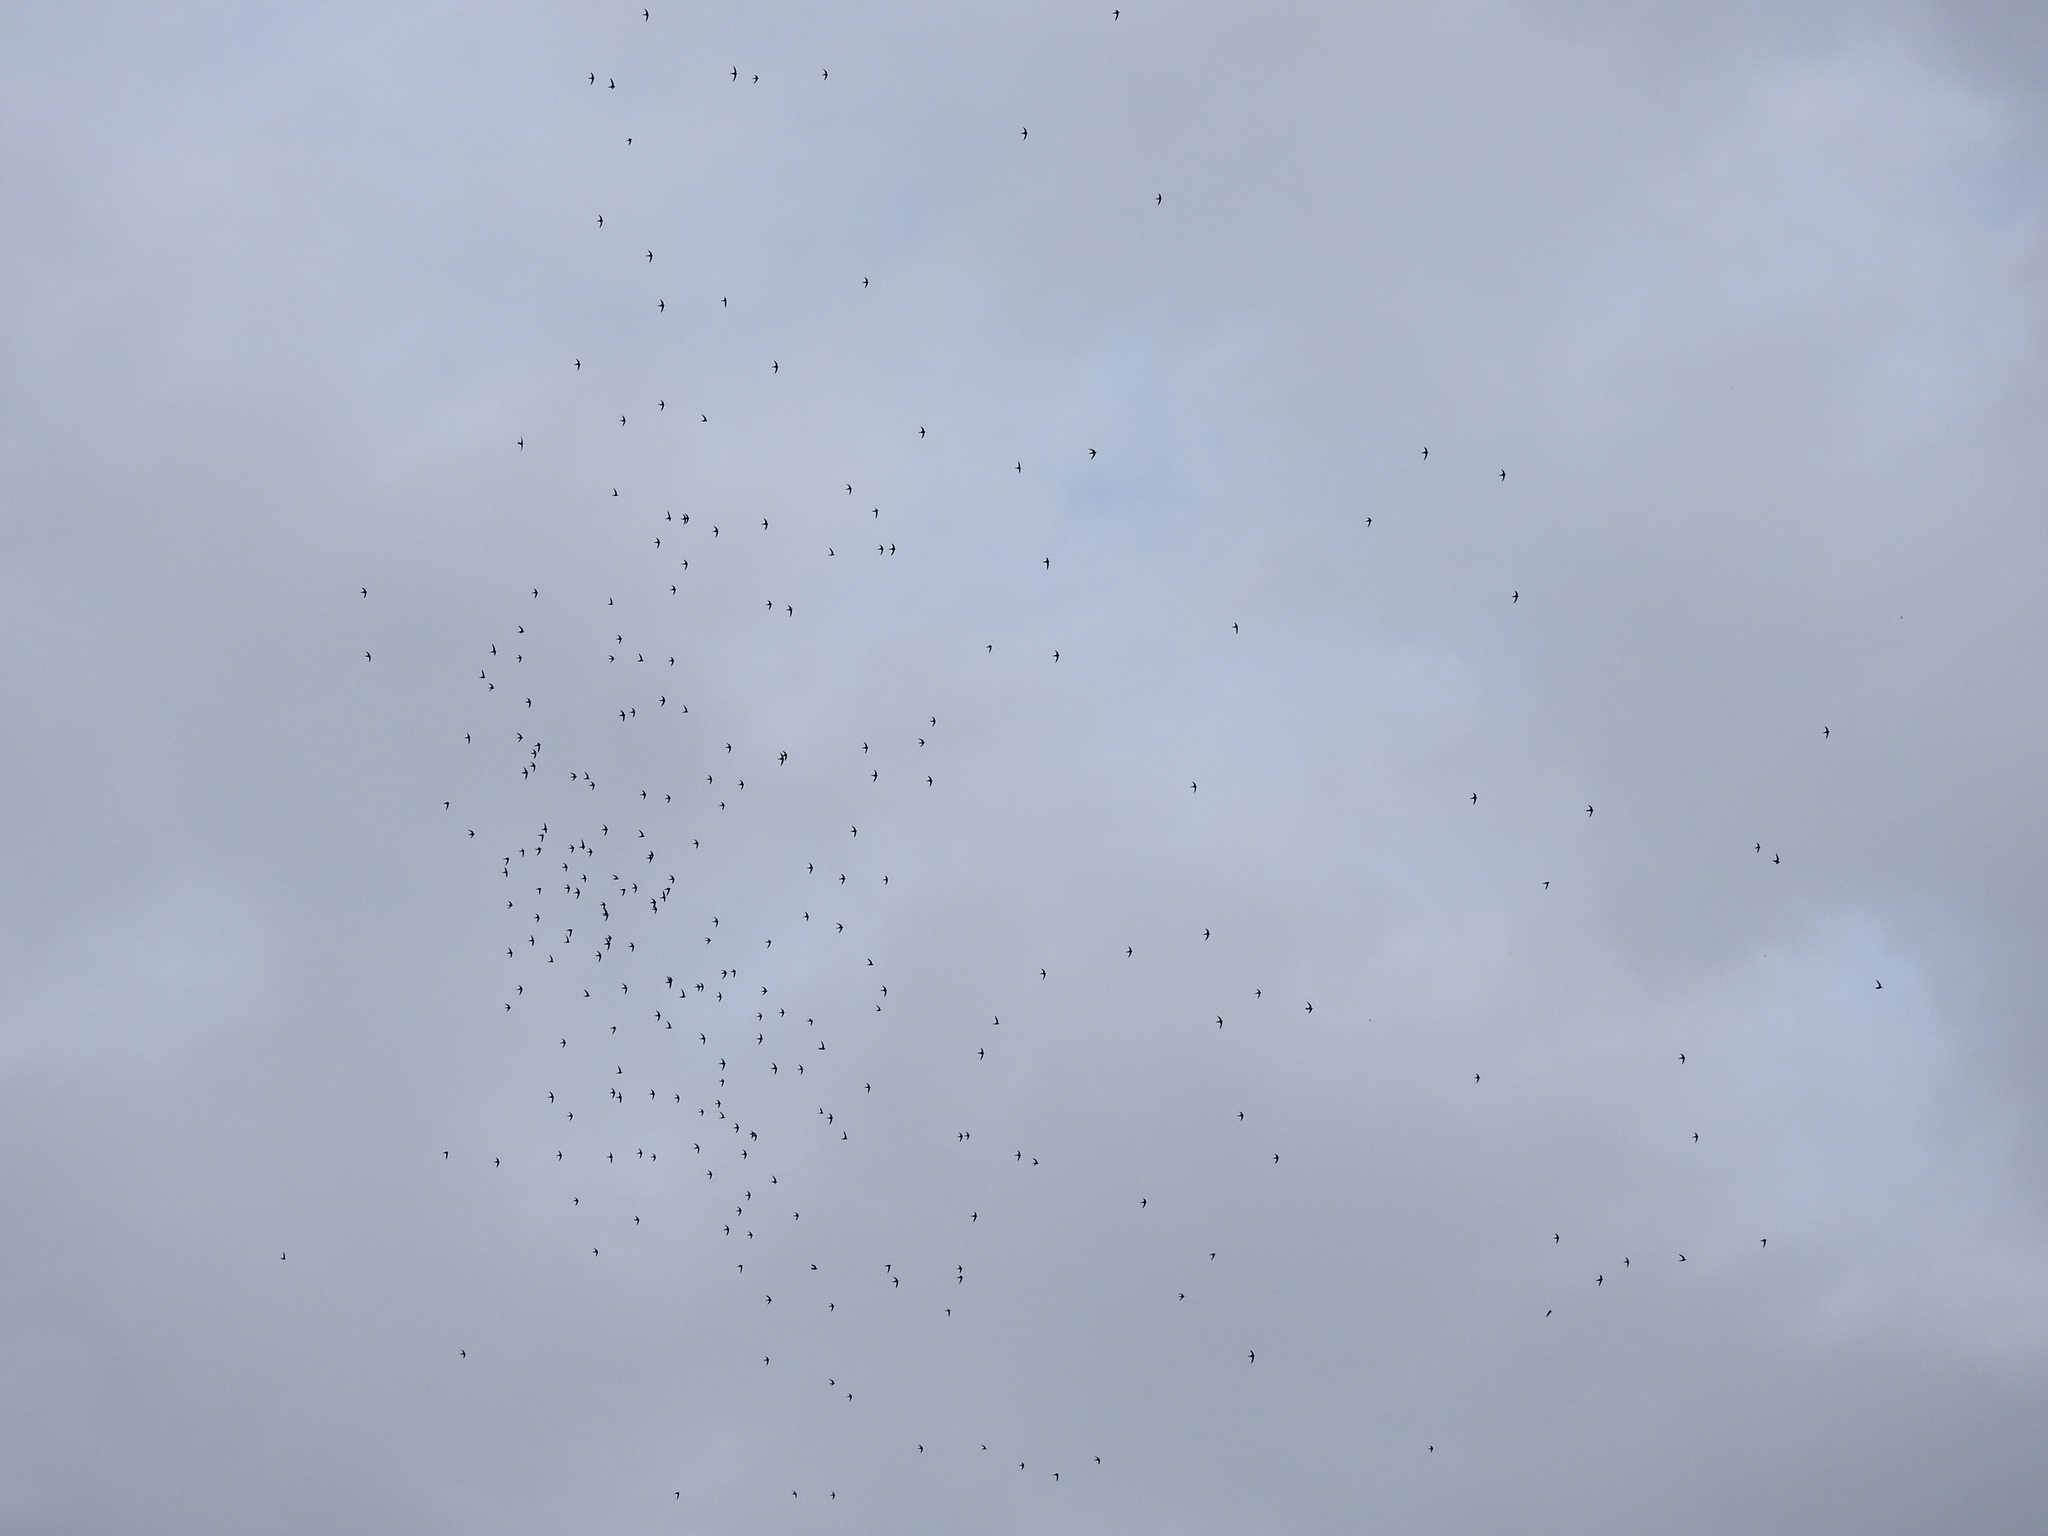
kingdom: Animalia
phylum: Chordata
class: Aves
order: Apodiformes
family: Apodidae
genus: Streptoprocne
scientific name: Streptoprocne zonaris
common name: White-collared swift
